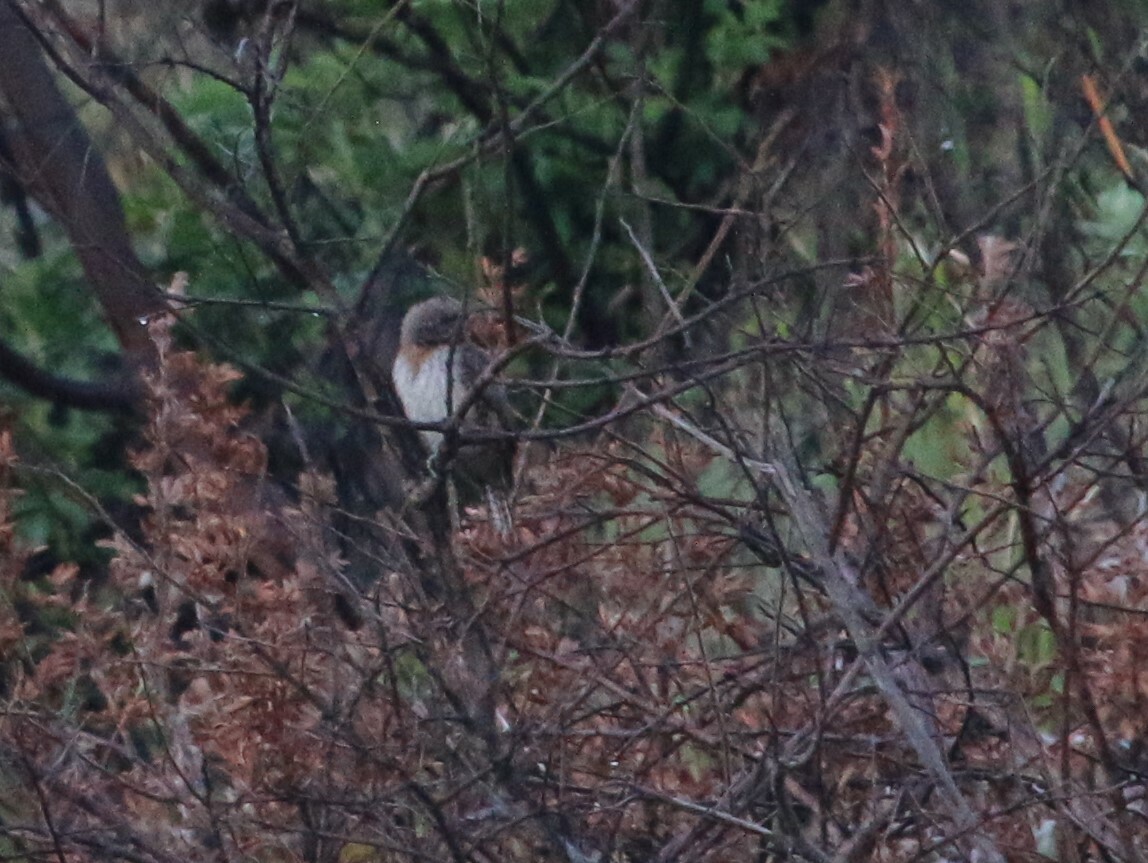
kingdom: Animalia
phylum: Chordata
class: Aves
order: Piciformes
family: Picidae
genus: Jynx
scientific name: Jynx ruficollis
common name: Red-throated wryneck
